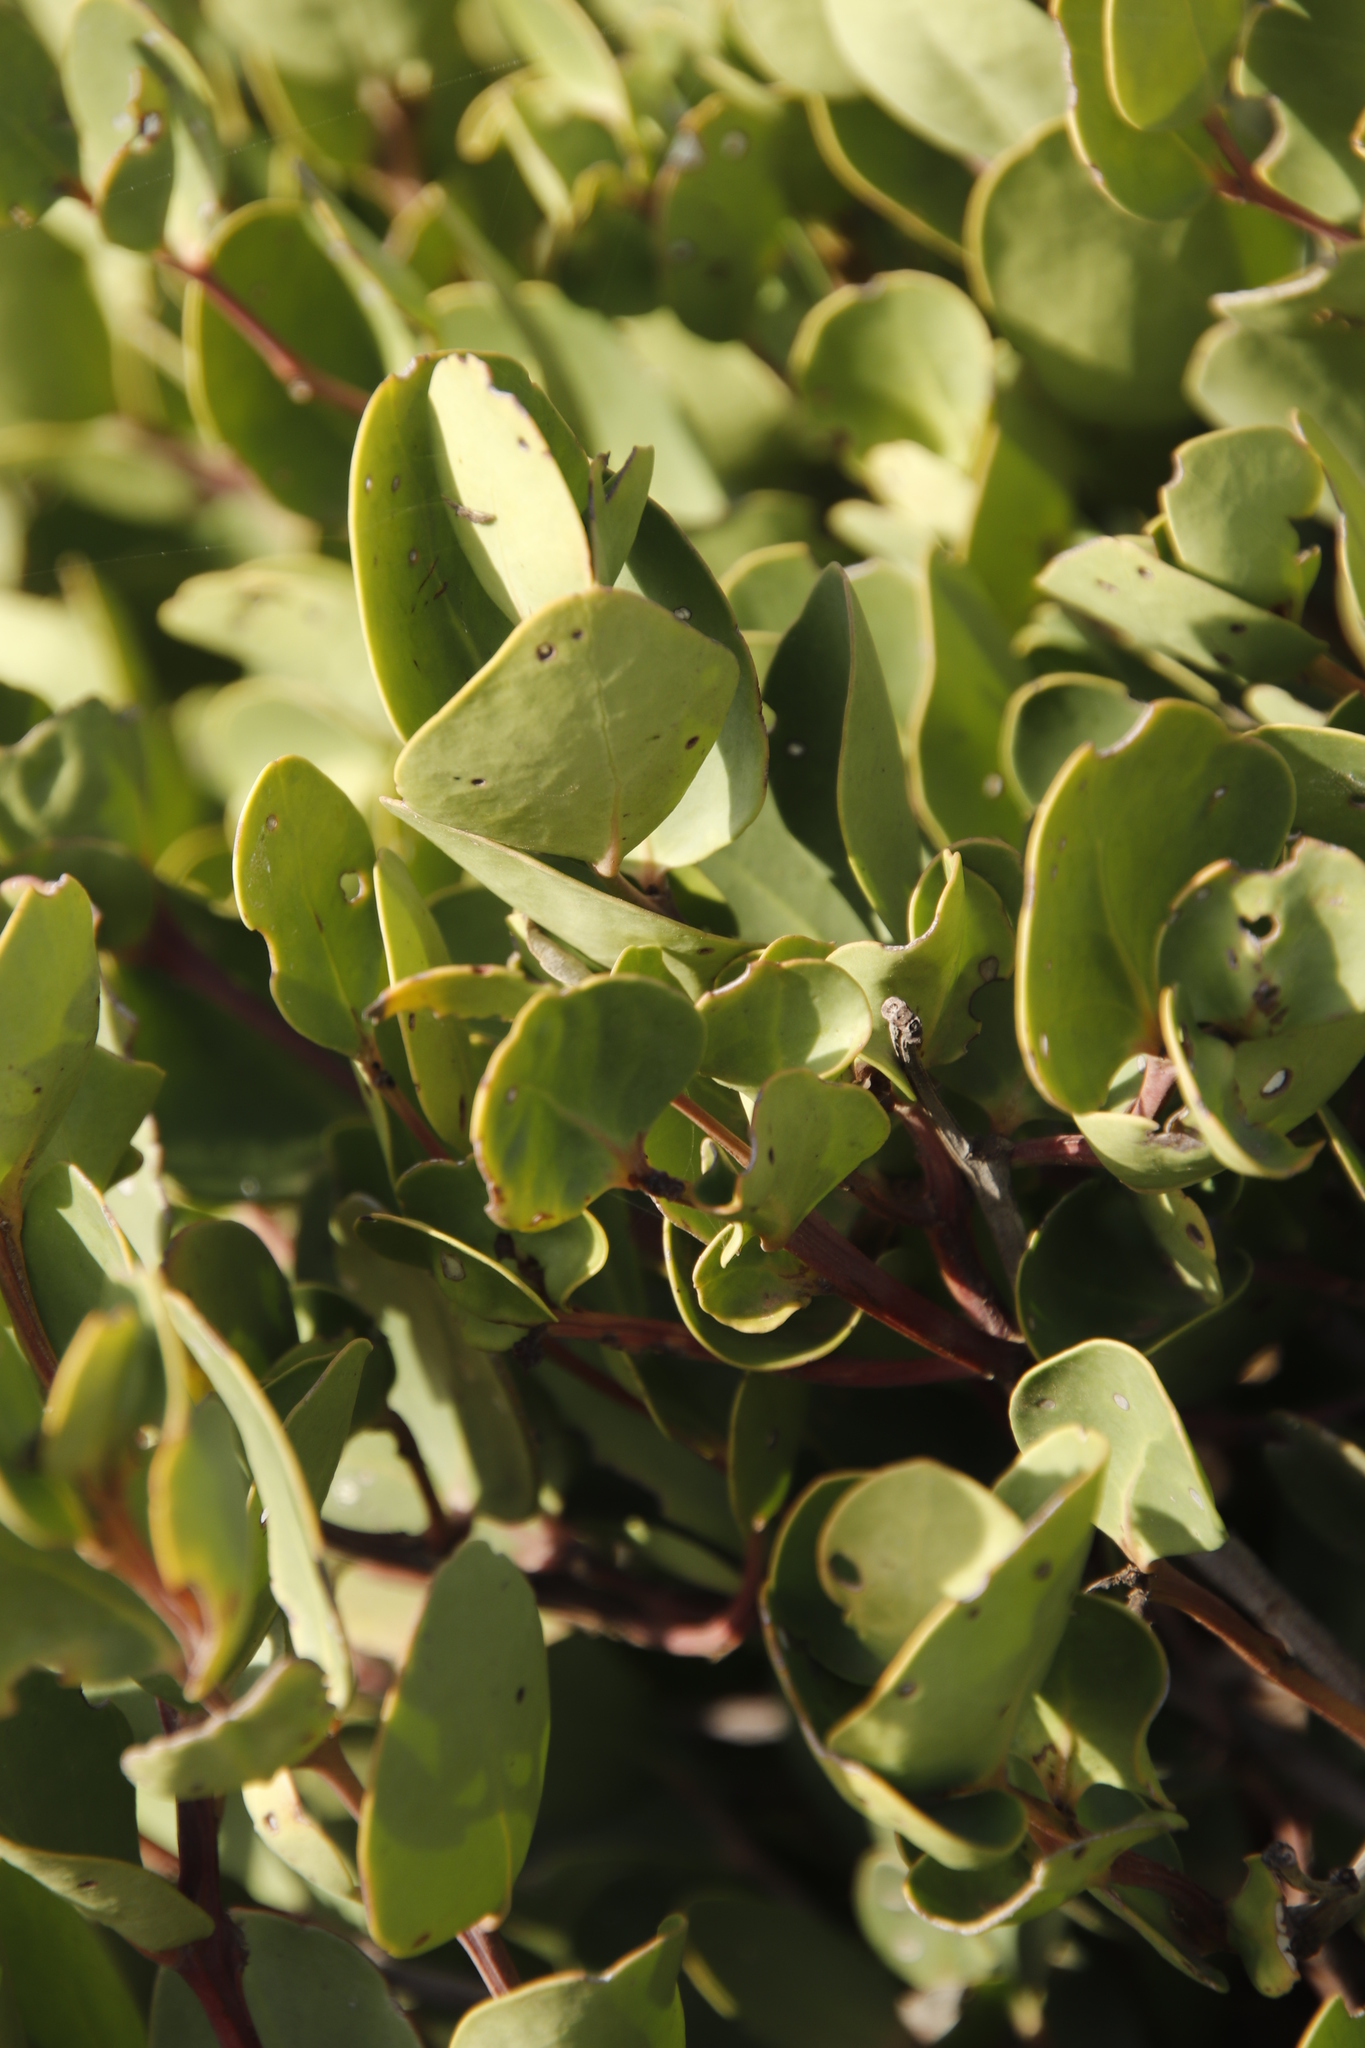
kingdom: Plantae
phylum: Tracheophyta
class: Magnoliopsida
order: Ericales
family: Ebenaceae
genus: Euclea
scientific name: Euclea racemosa
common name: Dune guarri
